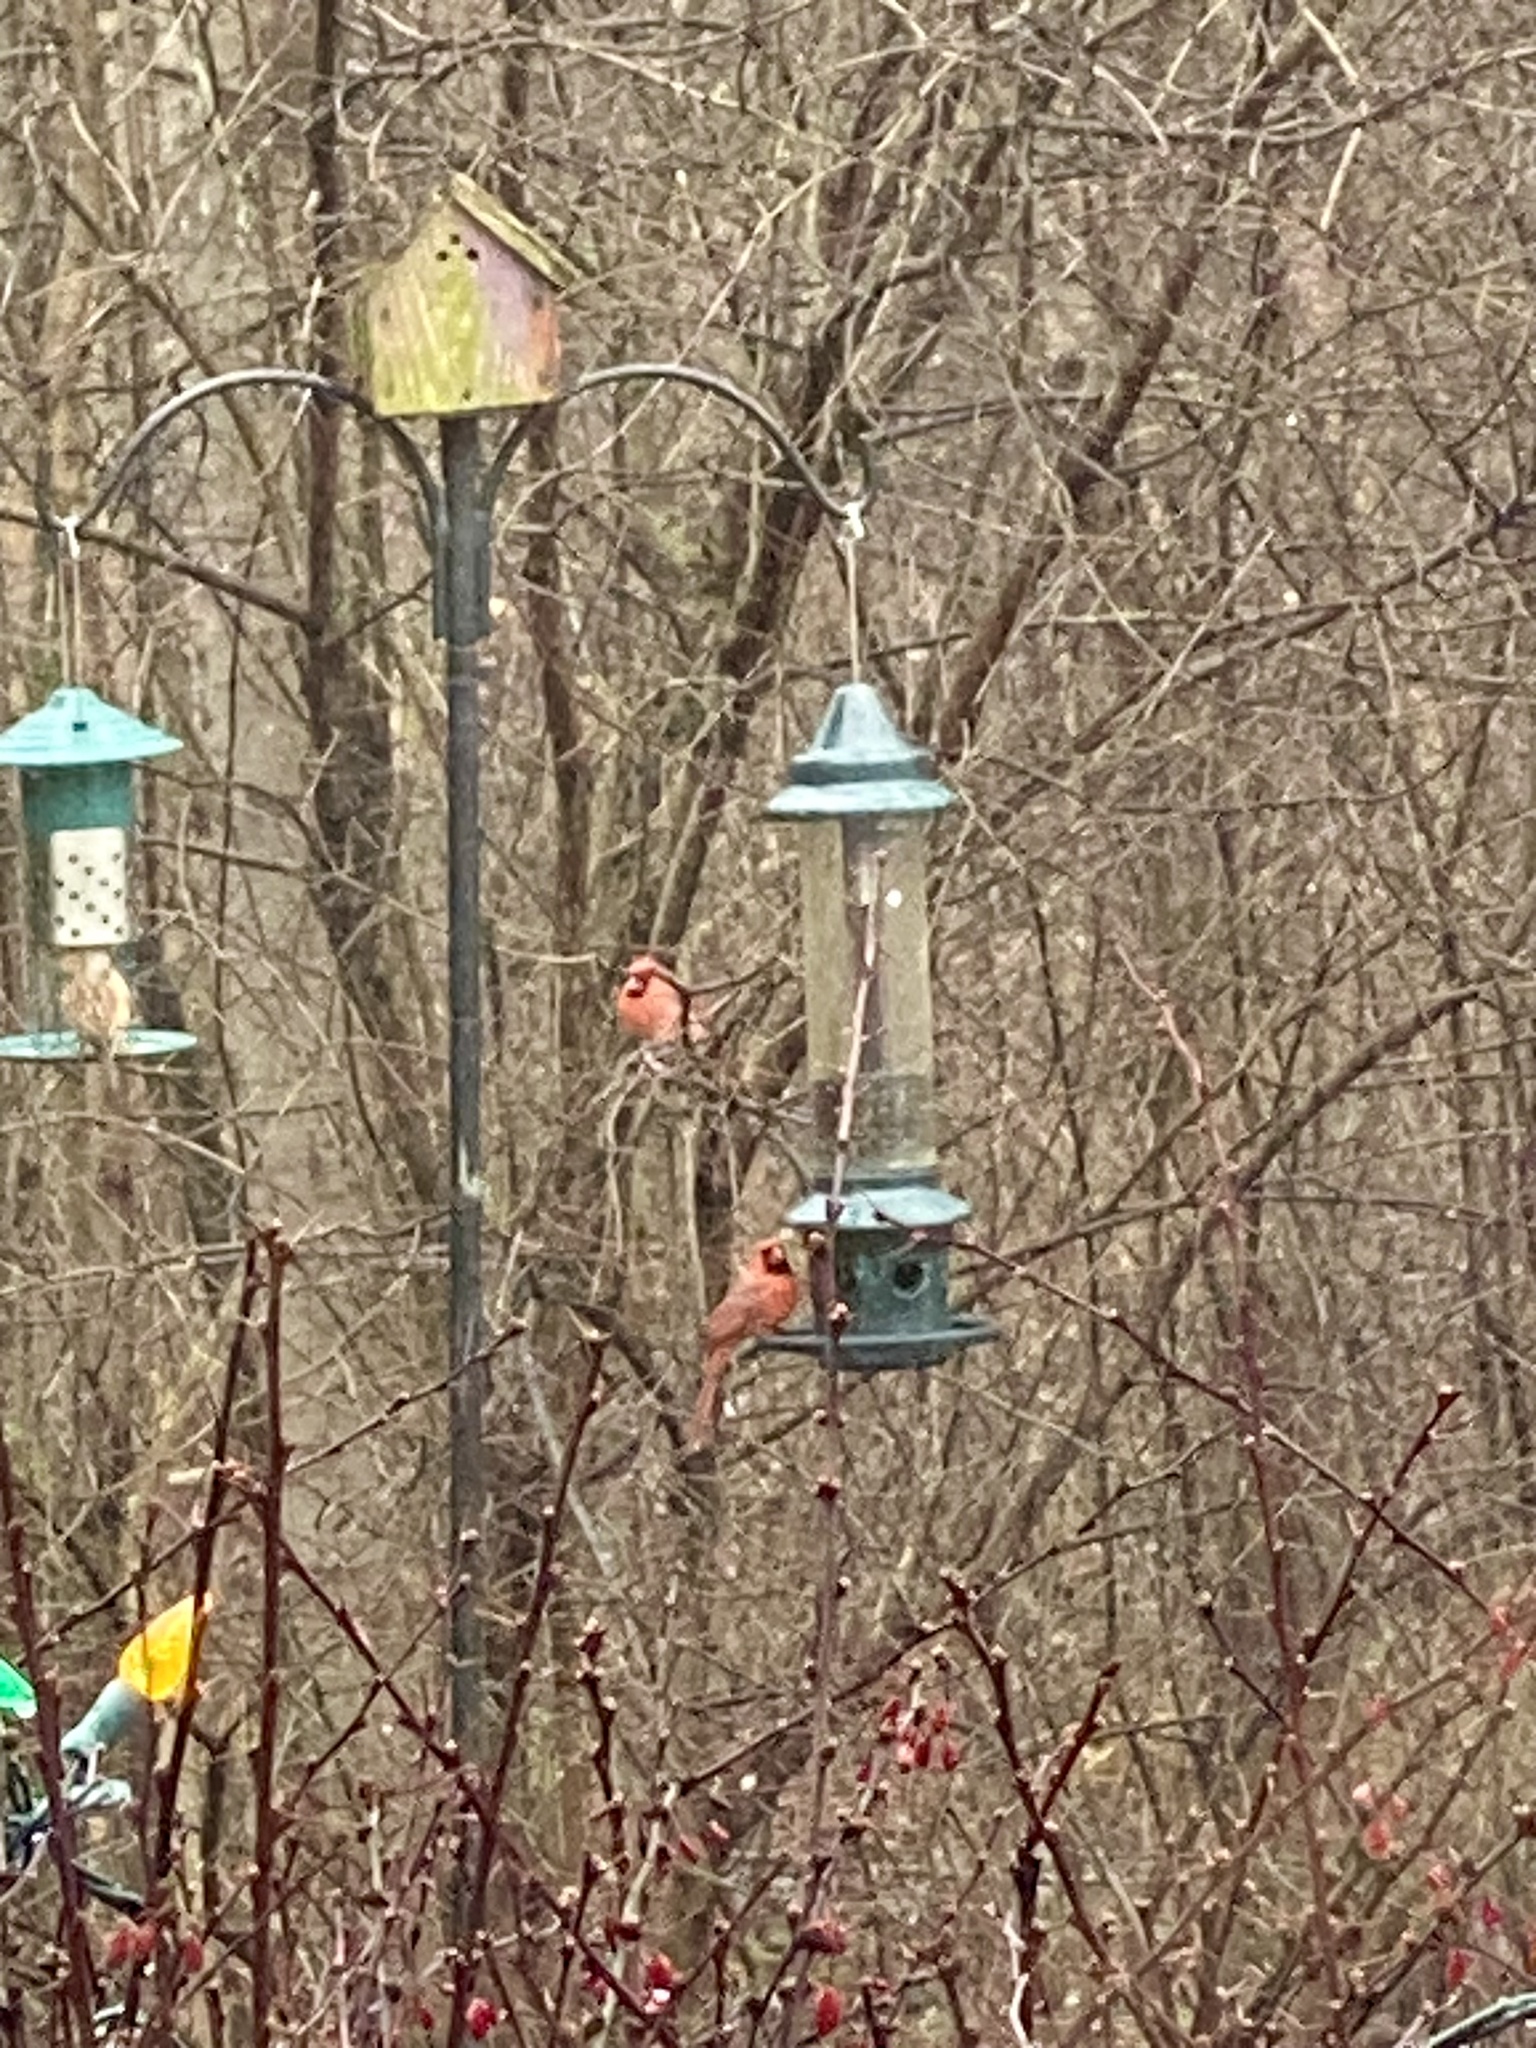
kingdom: Animalia
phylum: Chordata
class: Aves
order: Passeriformes
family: Cardinalidae
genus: Cardinalis
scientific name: Cardinalis cardinalis
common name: Northern cardinal
